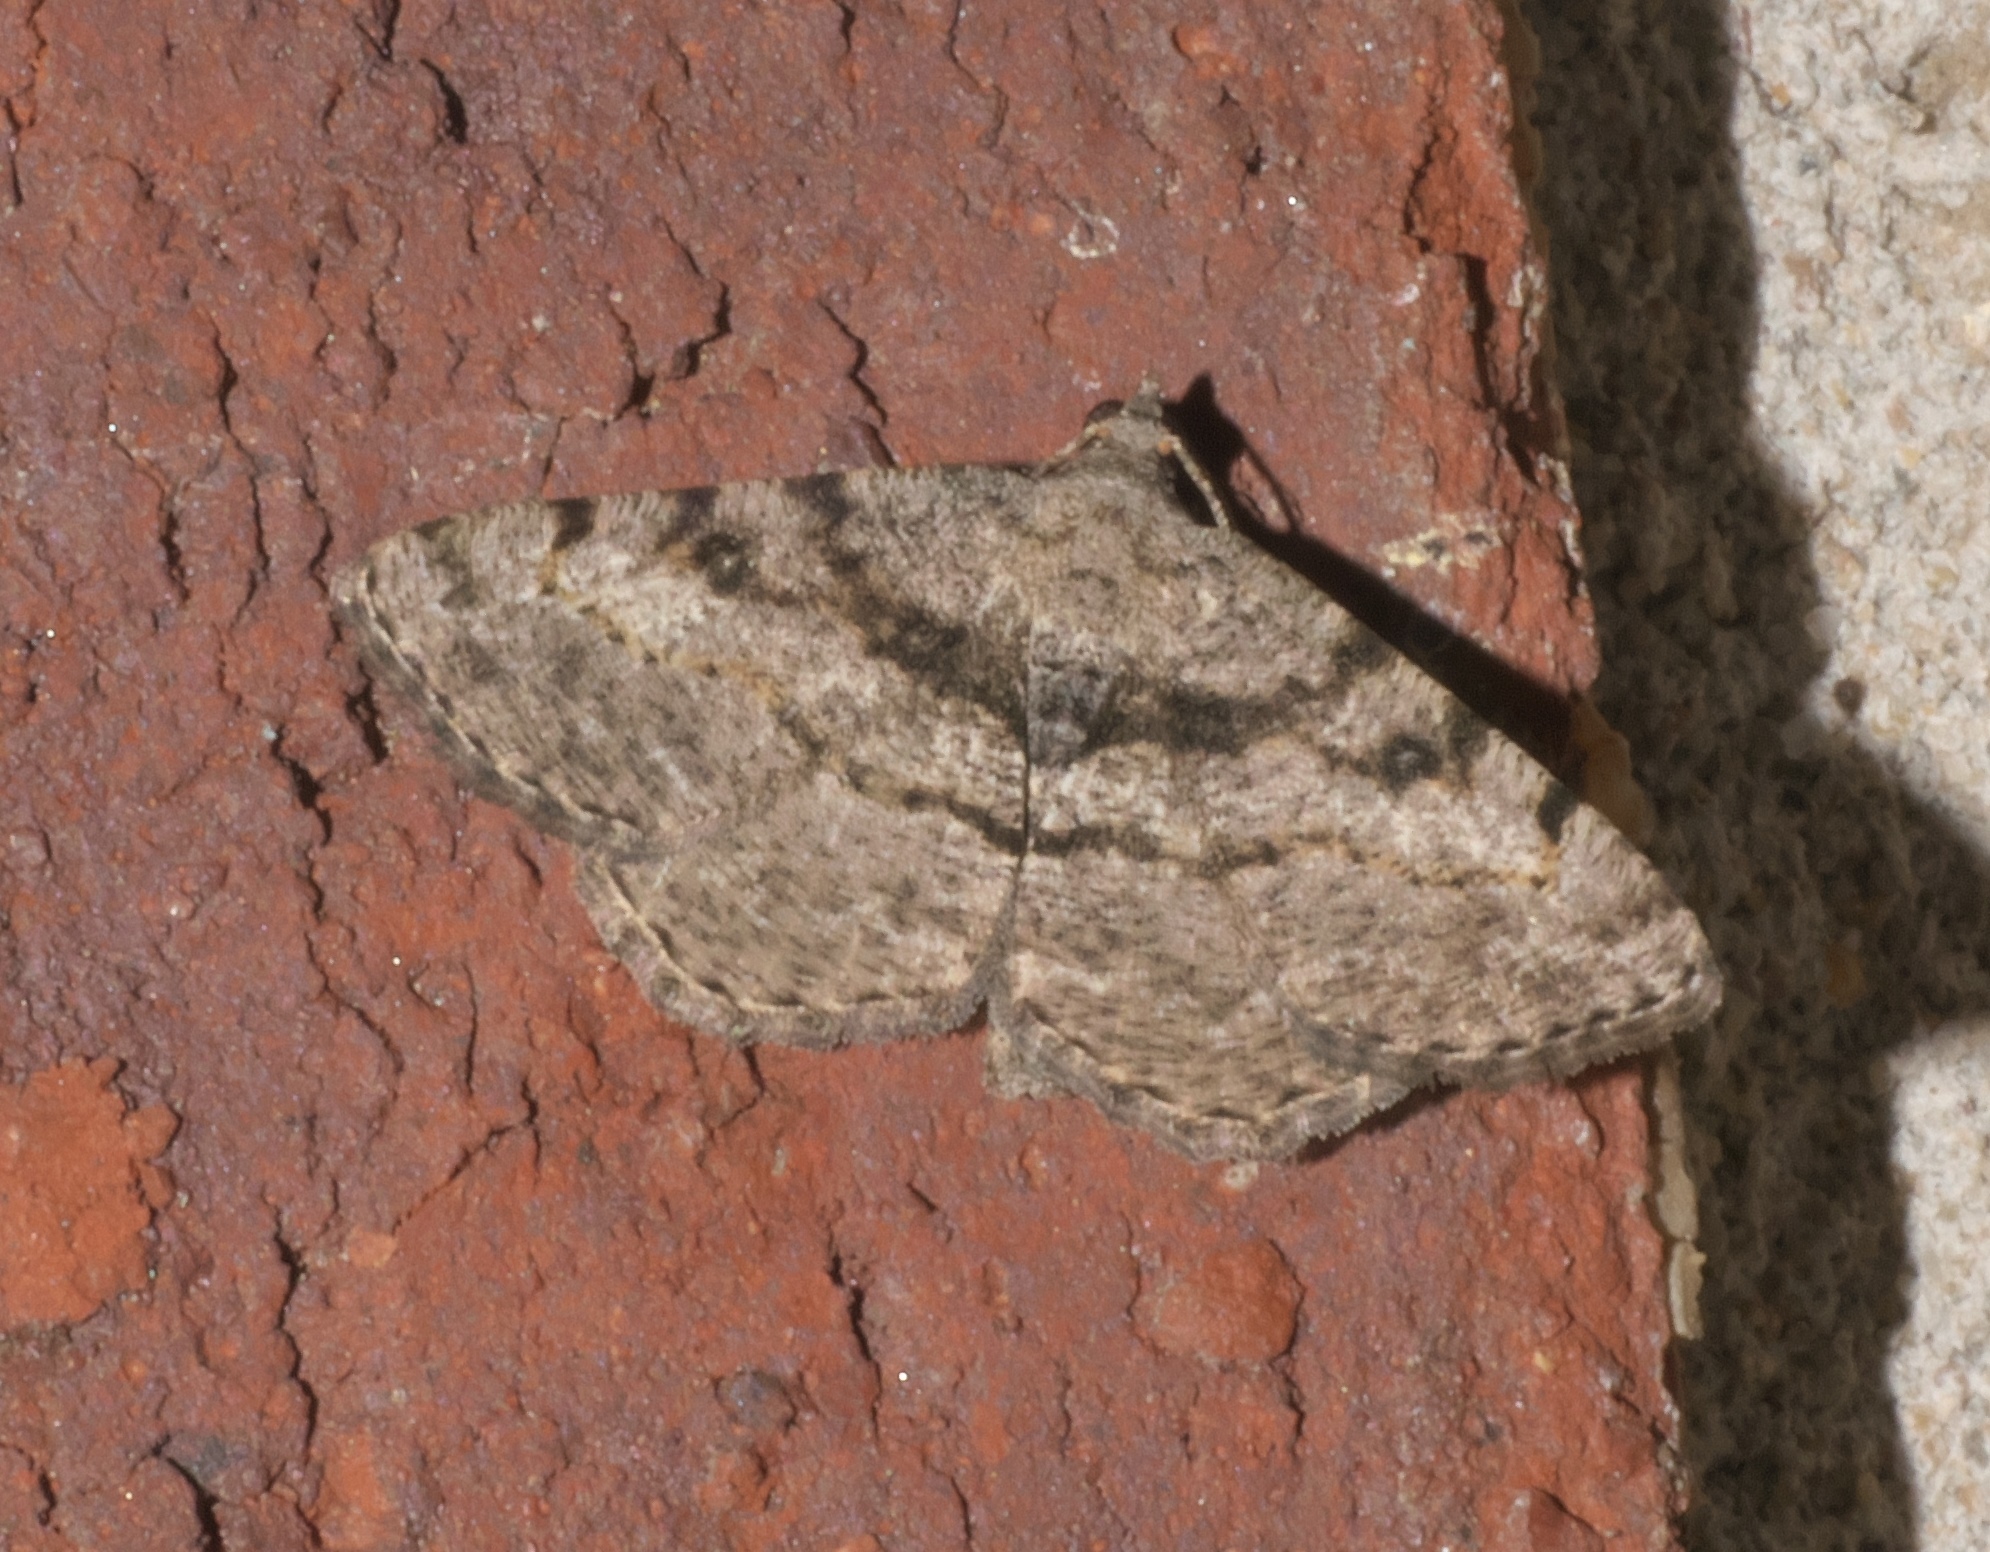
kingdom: Animalia
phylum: Arthropoda
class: Insecta
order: Lepidoptera
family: Geometridae
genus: Digrammia
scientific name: Digrammia gnophosaria
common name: Hollow-spotted angle
